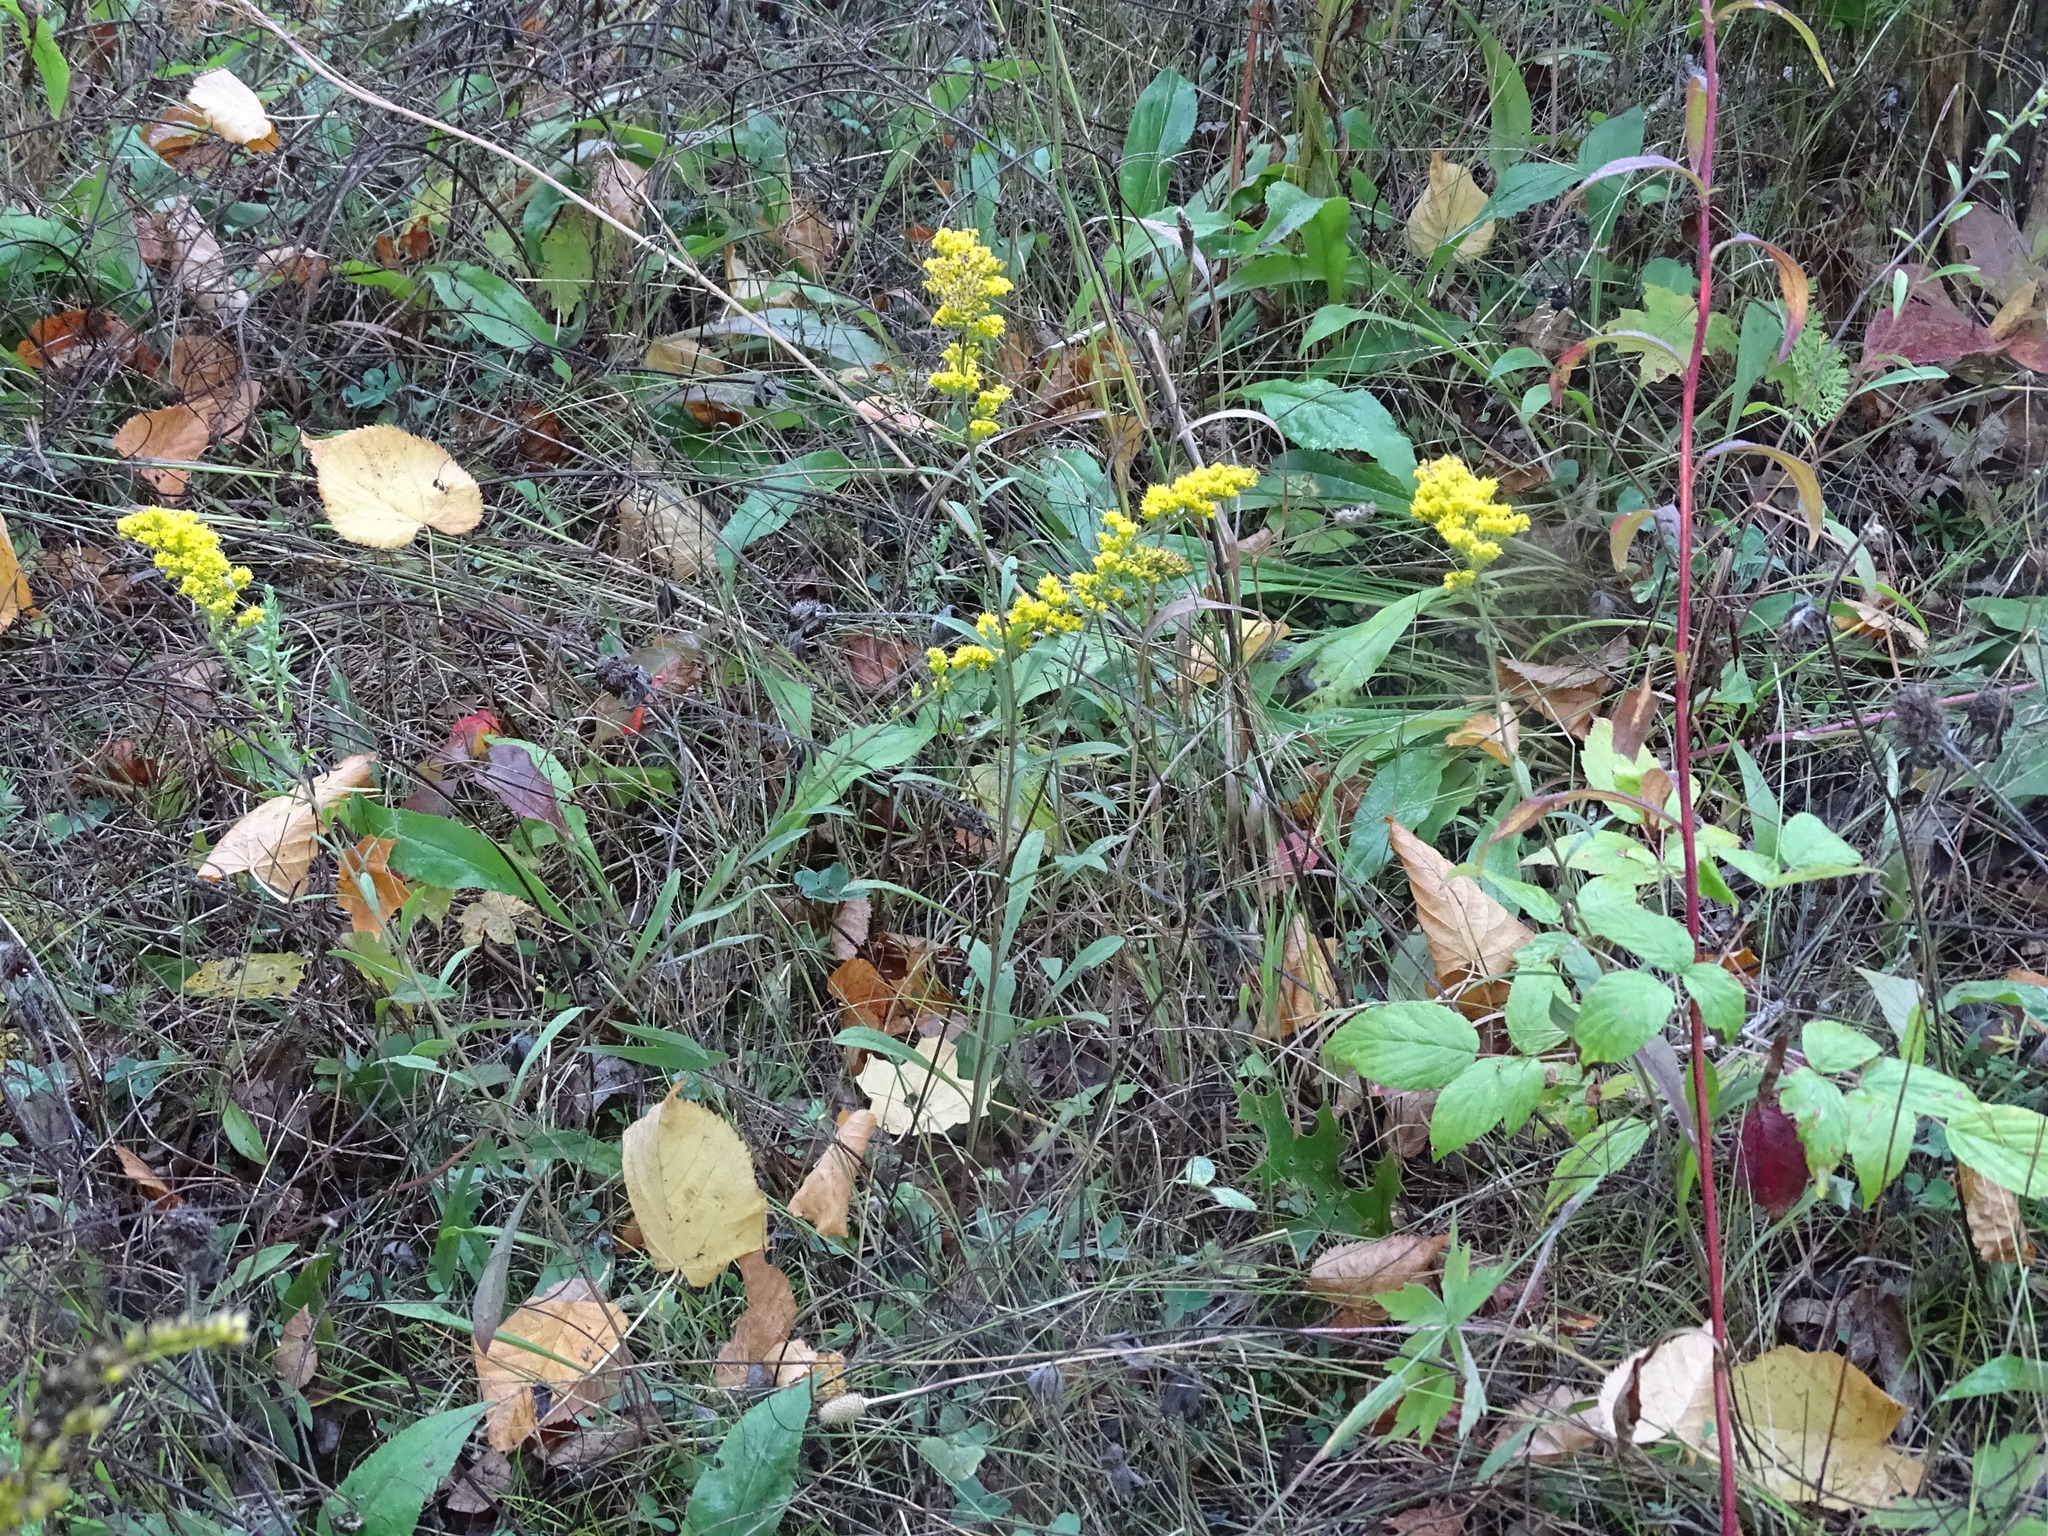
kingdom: Plantae
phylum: Tracheophyta
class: Magnoliopsida
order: Asterales
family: Asteraceae
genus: Solidago
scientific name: Solidago nemoralis
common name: Grey goldenrod
